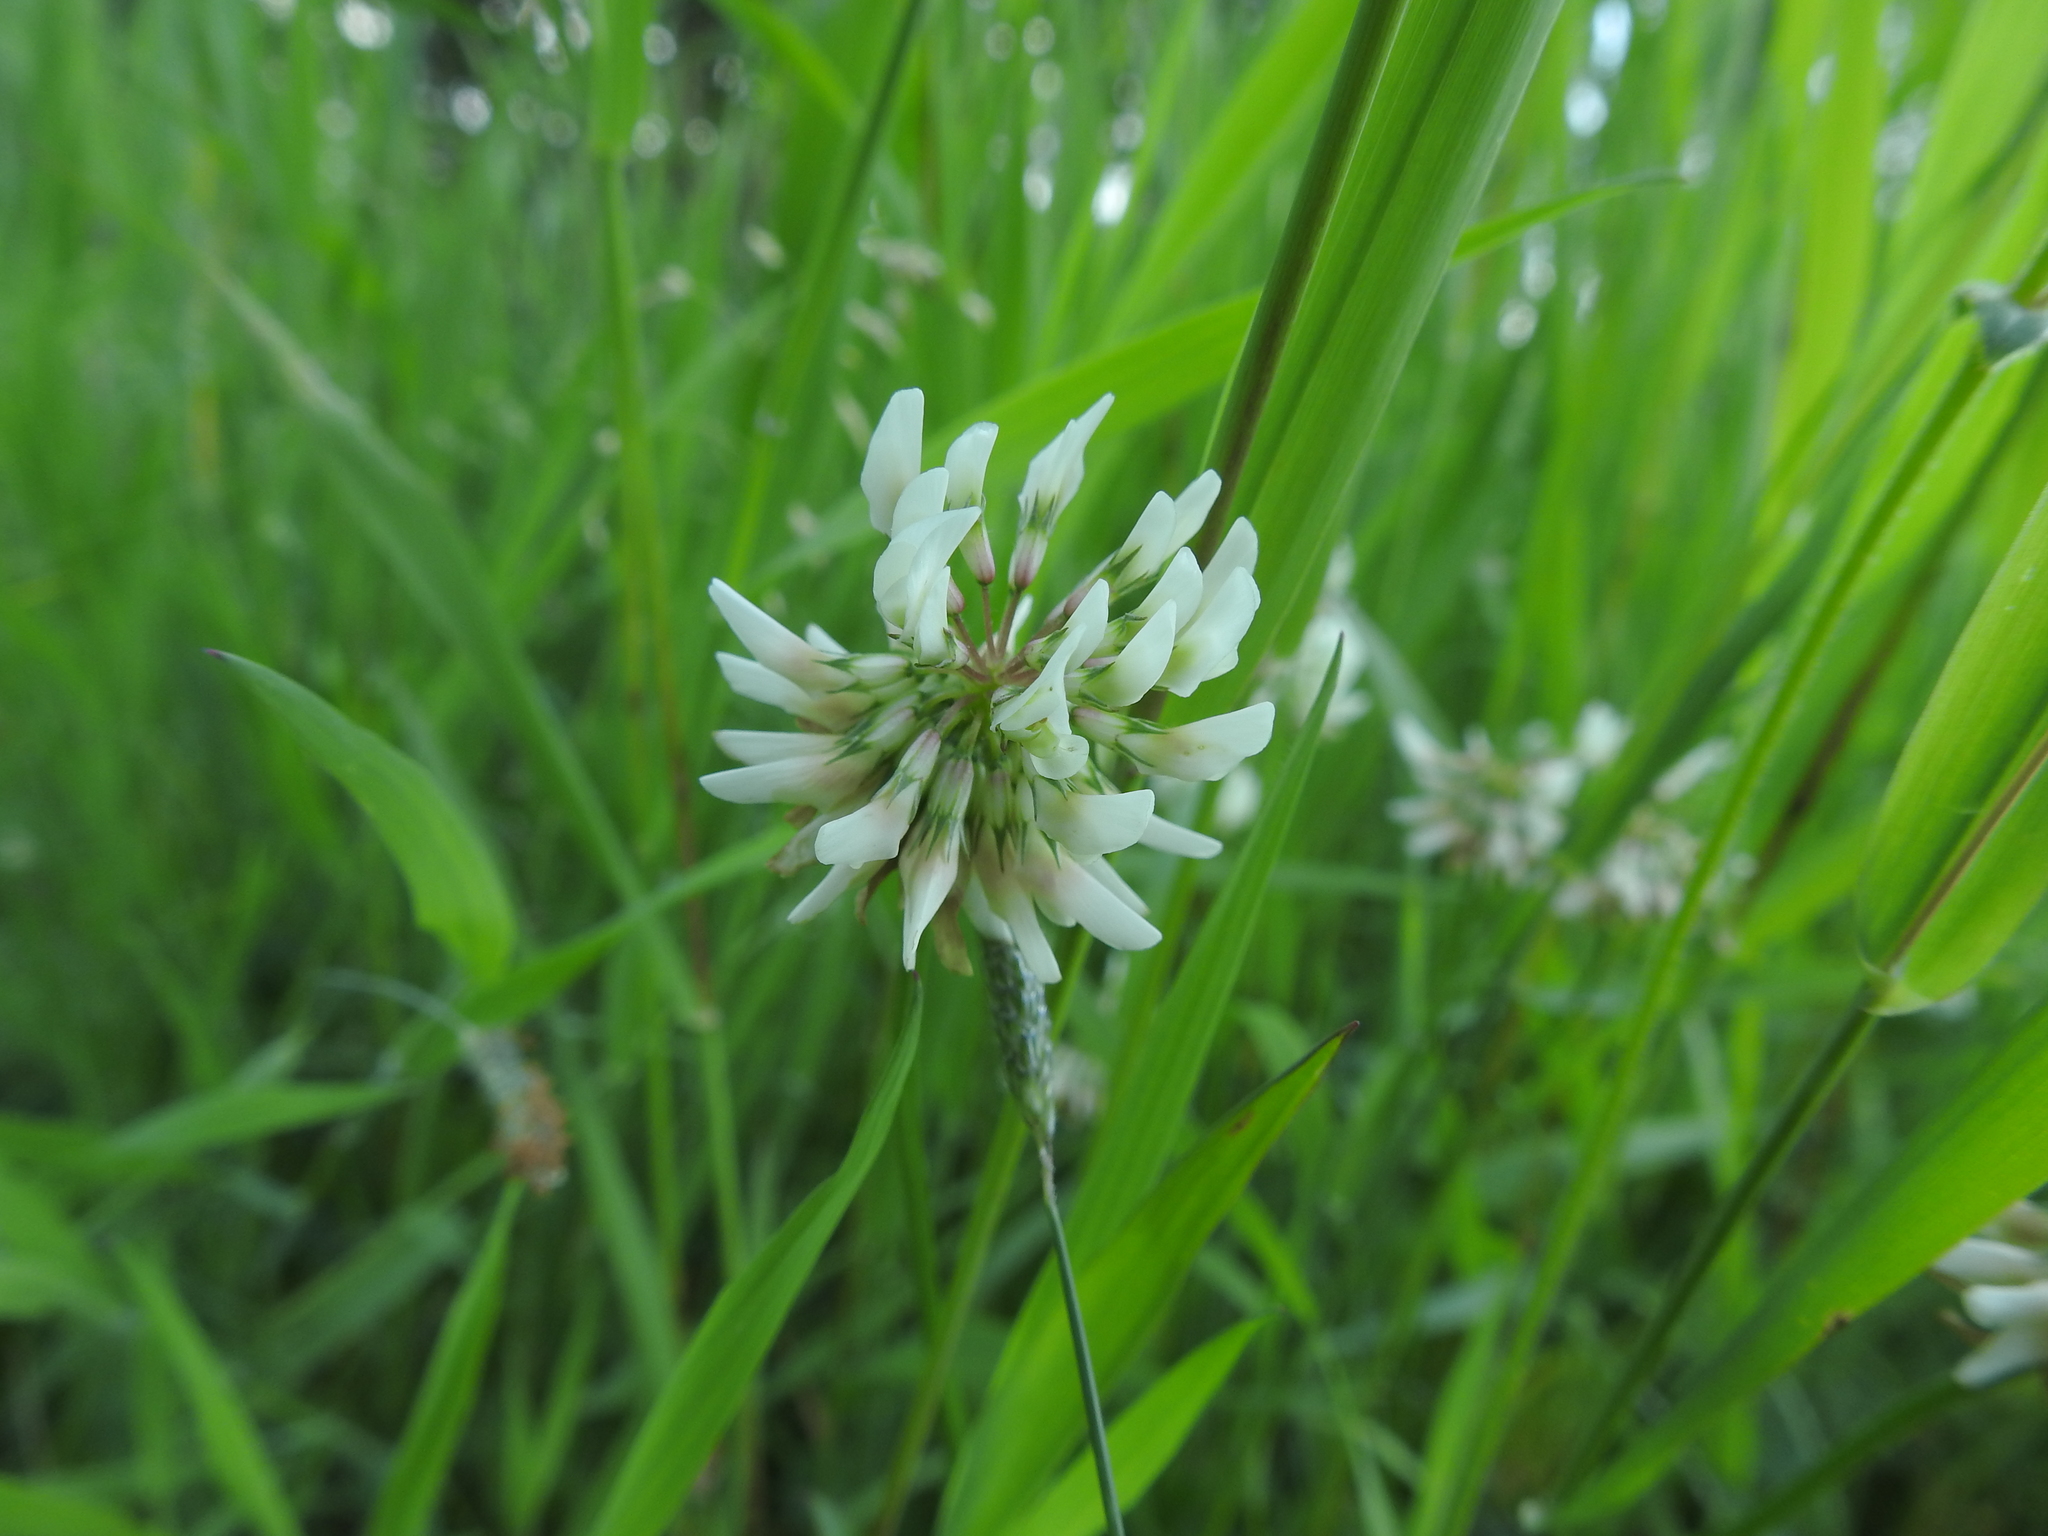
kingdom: Plantae
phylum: Tracheophyta
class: Magnoliopsida
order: Fabales
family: Fabaceae
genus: Trifolium
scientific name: Trifolium repens
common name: White clover
